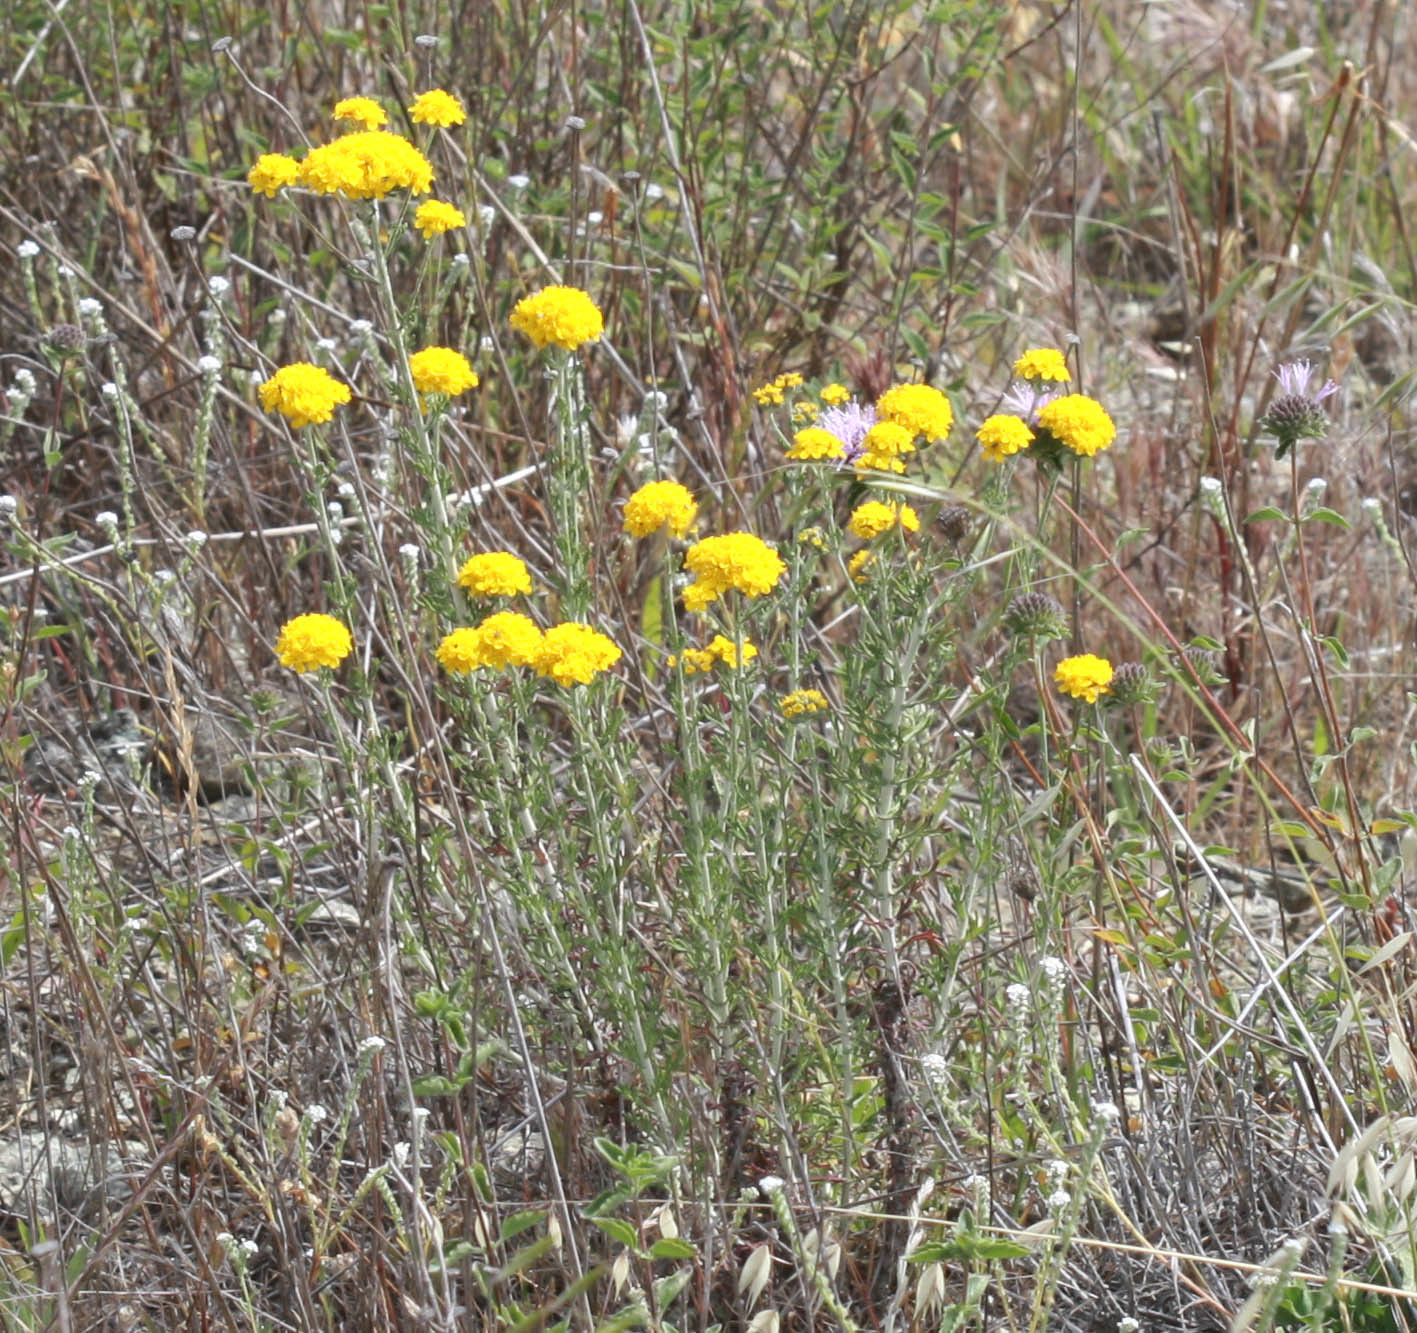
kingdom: Plantae
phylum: Tracheophyta
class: Magnoliopsida
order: Asterales
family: Asteraceae
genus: Eriophyllum
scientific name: Eriophyllum confertiflorum
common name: Golden-yarrow
